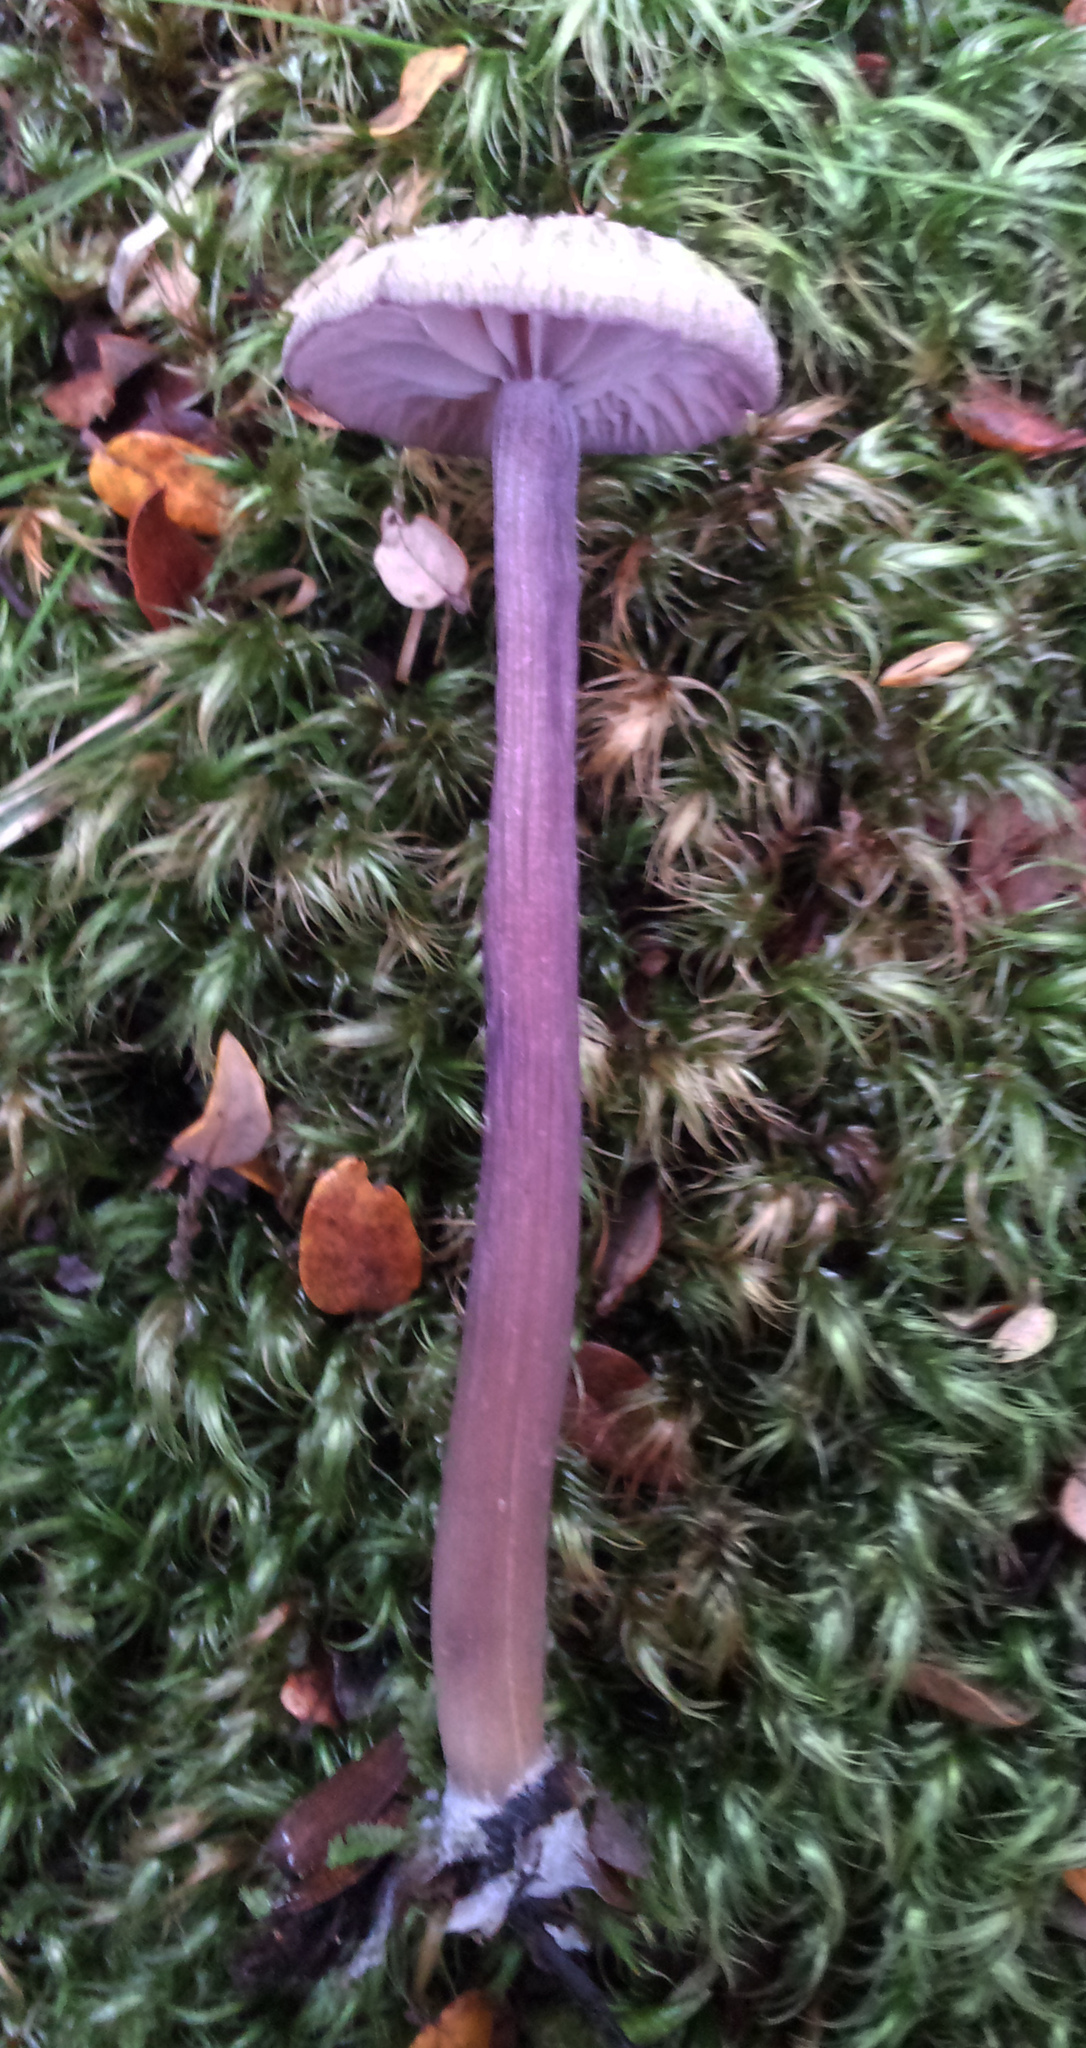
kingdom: Fungi
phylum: Basidiomycota
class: Agaricomycetes
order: Agaricales
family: Hydnangiaceae
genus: Laccaria
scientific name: Laccaria lilacina
